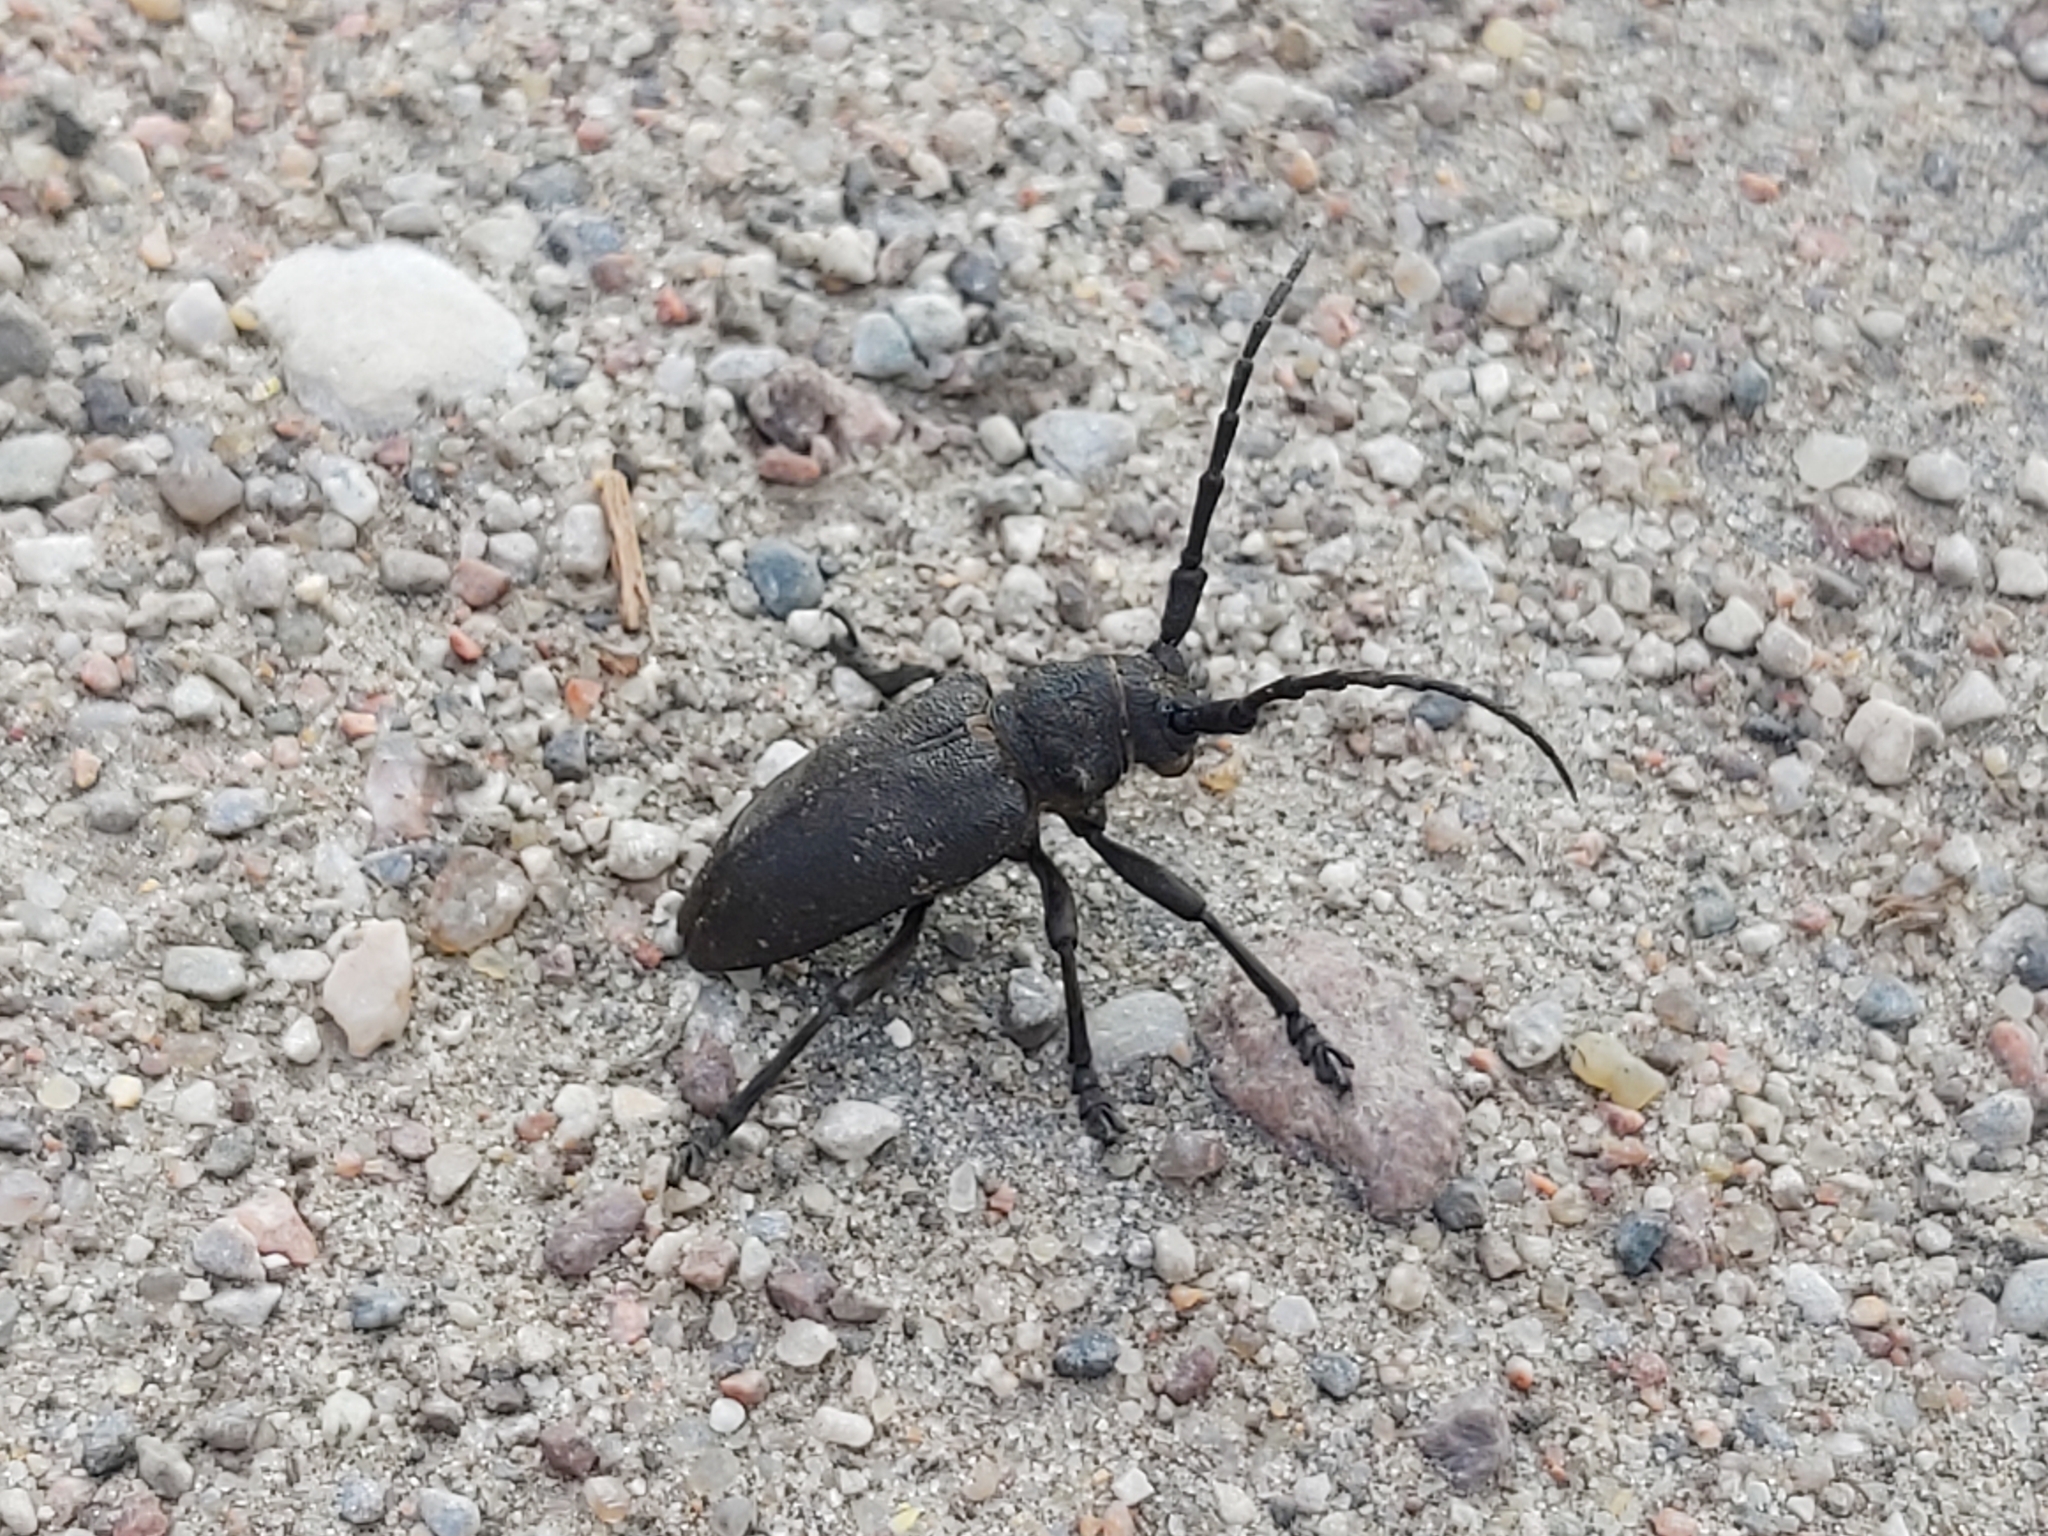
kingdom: Animalia
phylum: Arthropoda
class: Insecta
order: Coleoptera
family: Cerambycidae
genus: Lamia
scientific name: Lamia textor
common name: Weaver beetle
